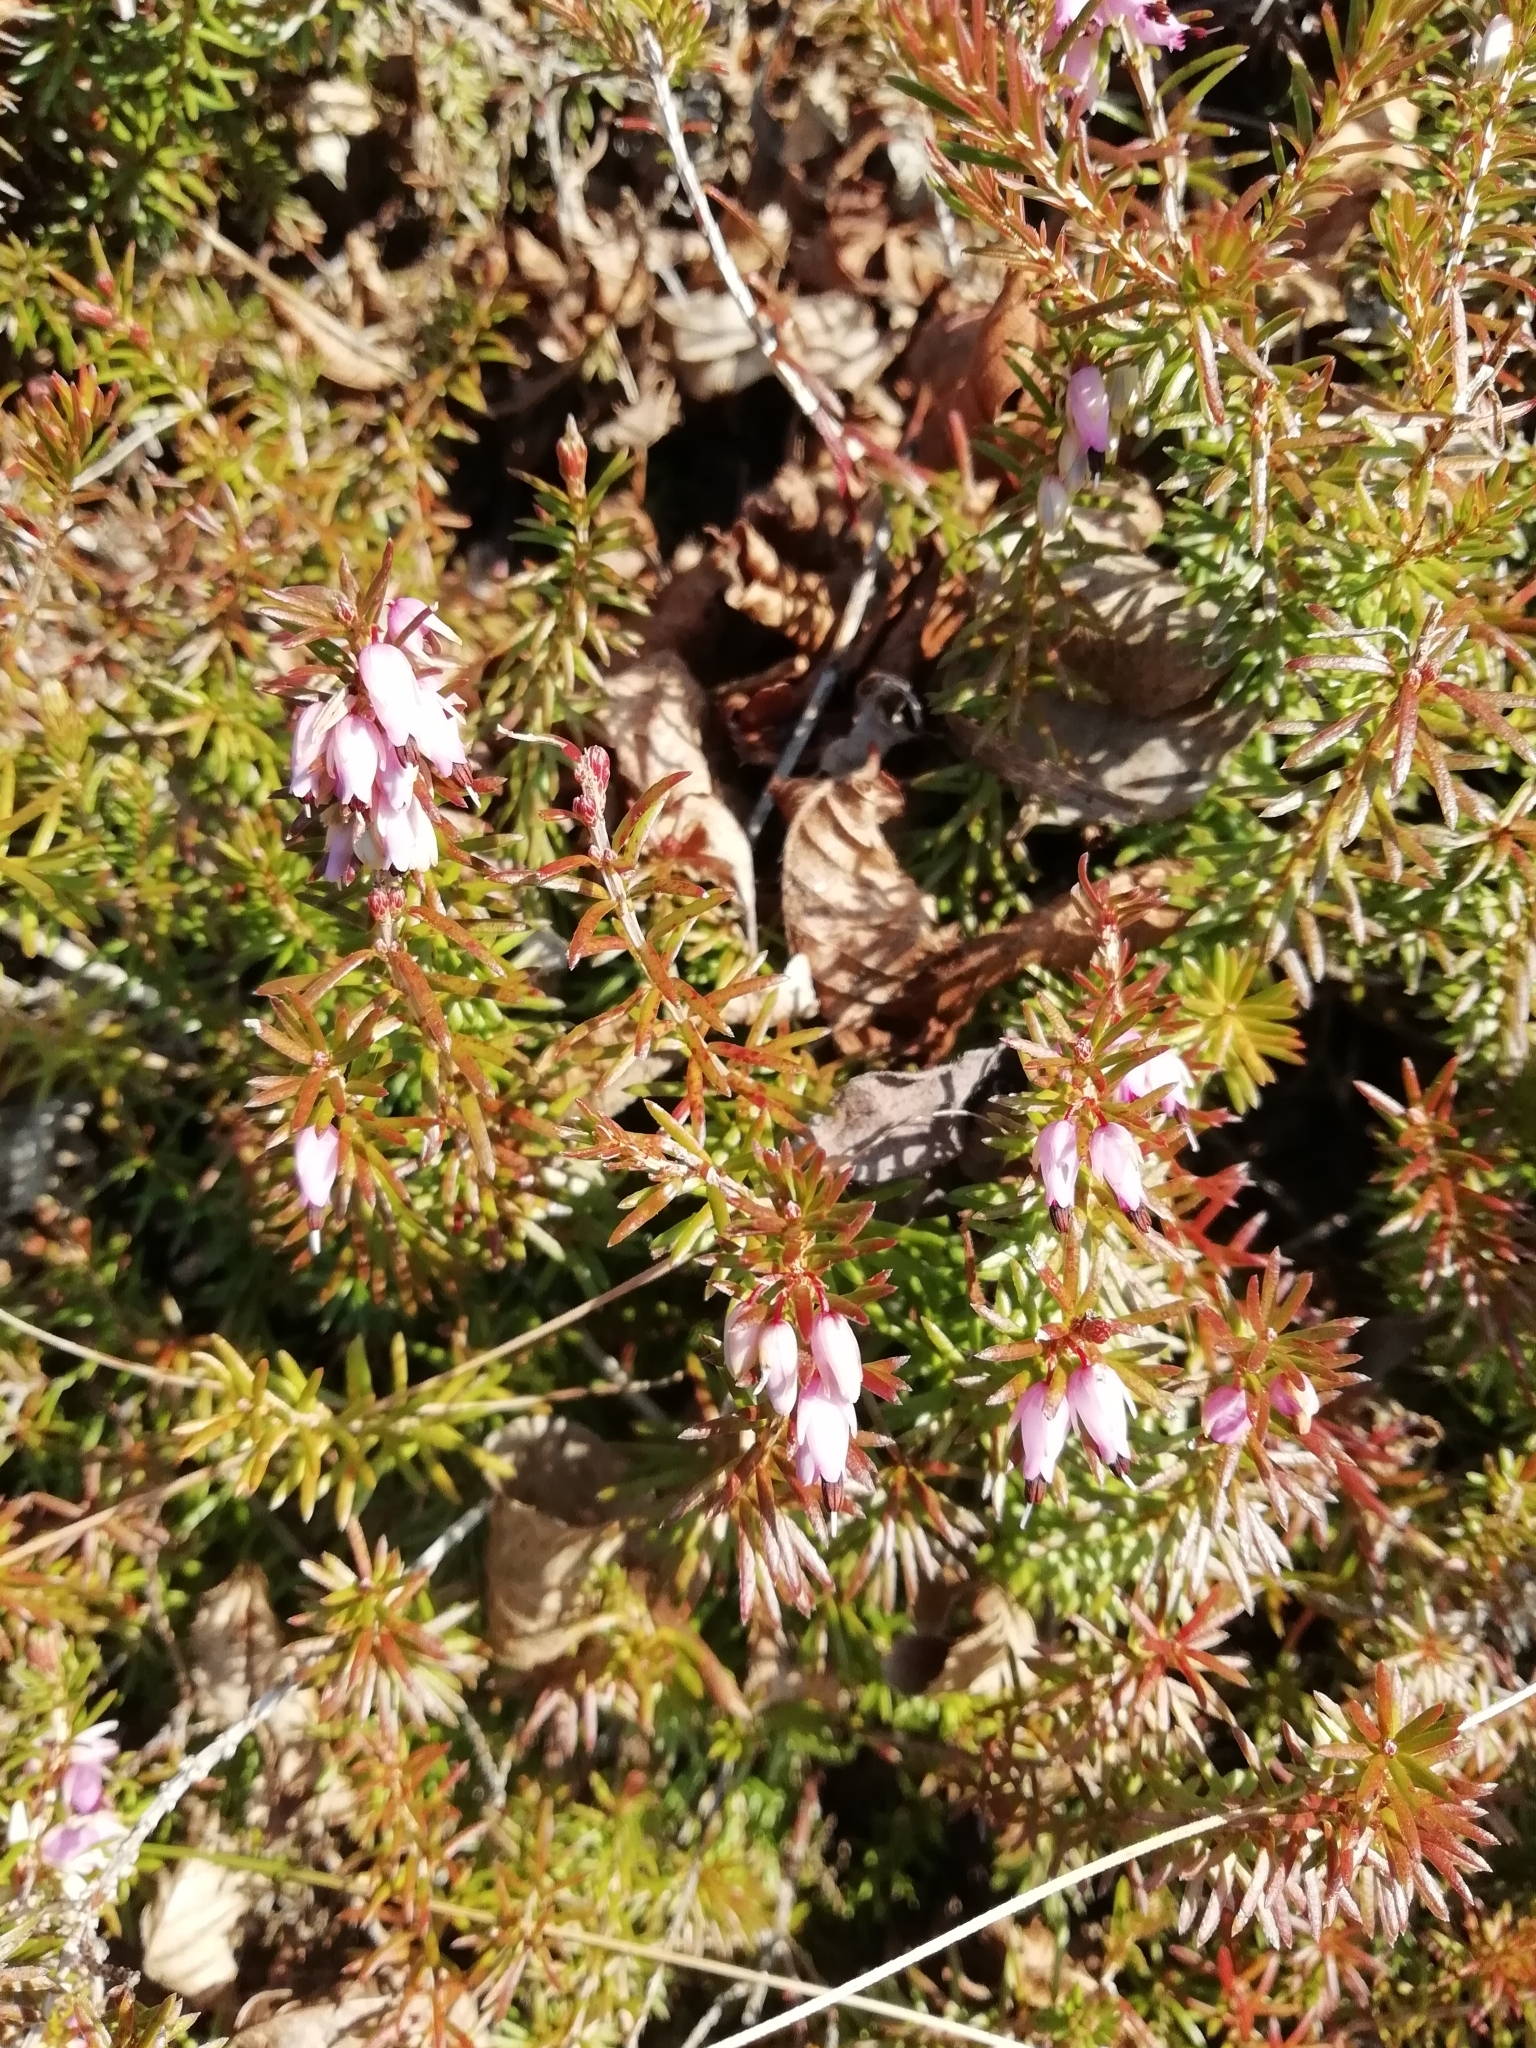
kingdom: Plantae
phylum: Tracheophyta
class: Magnoliopsida
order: Ericales
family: Ericaceae
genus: Erica
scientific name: Erica carnea
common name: Winter heath
